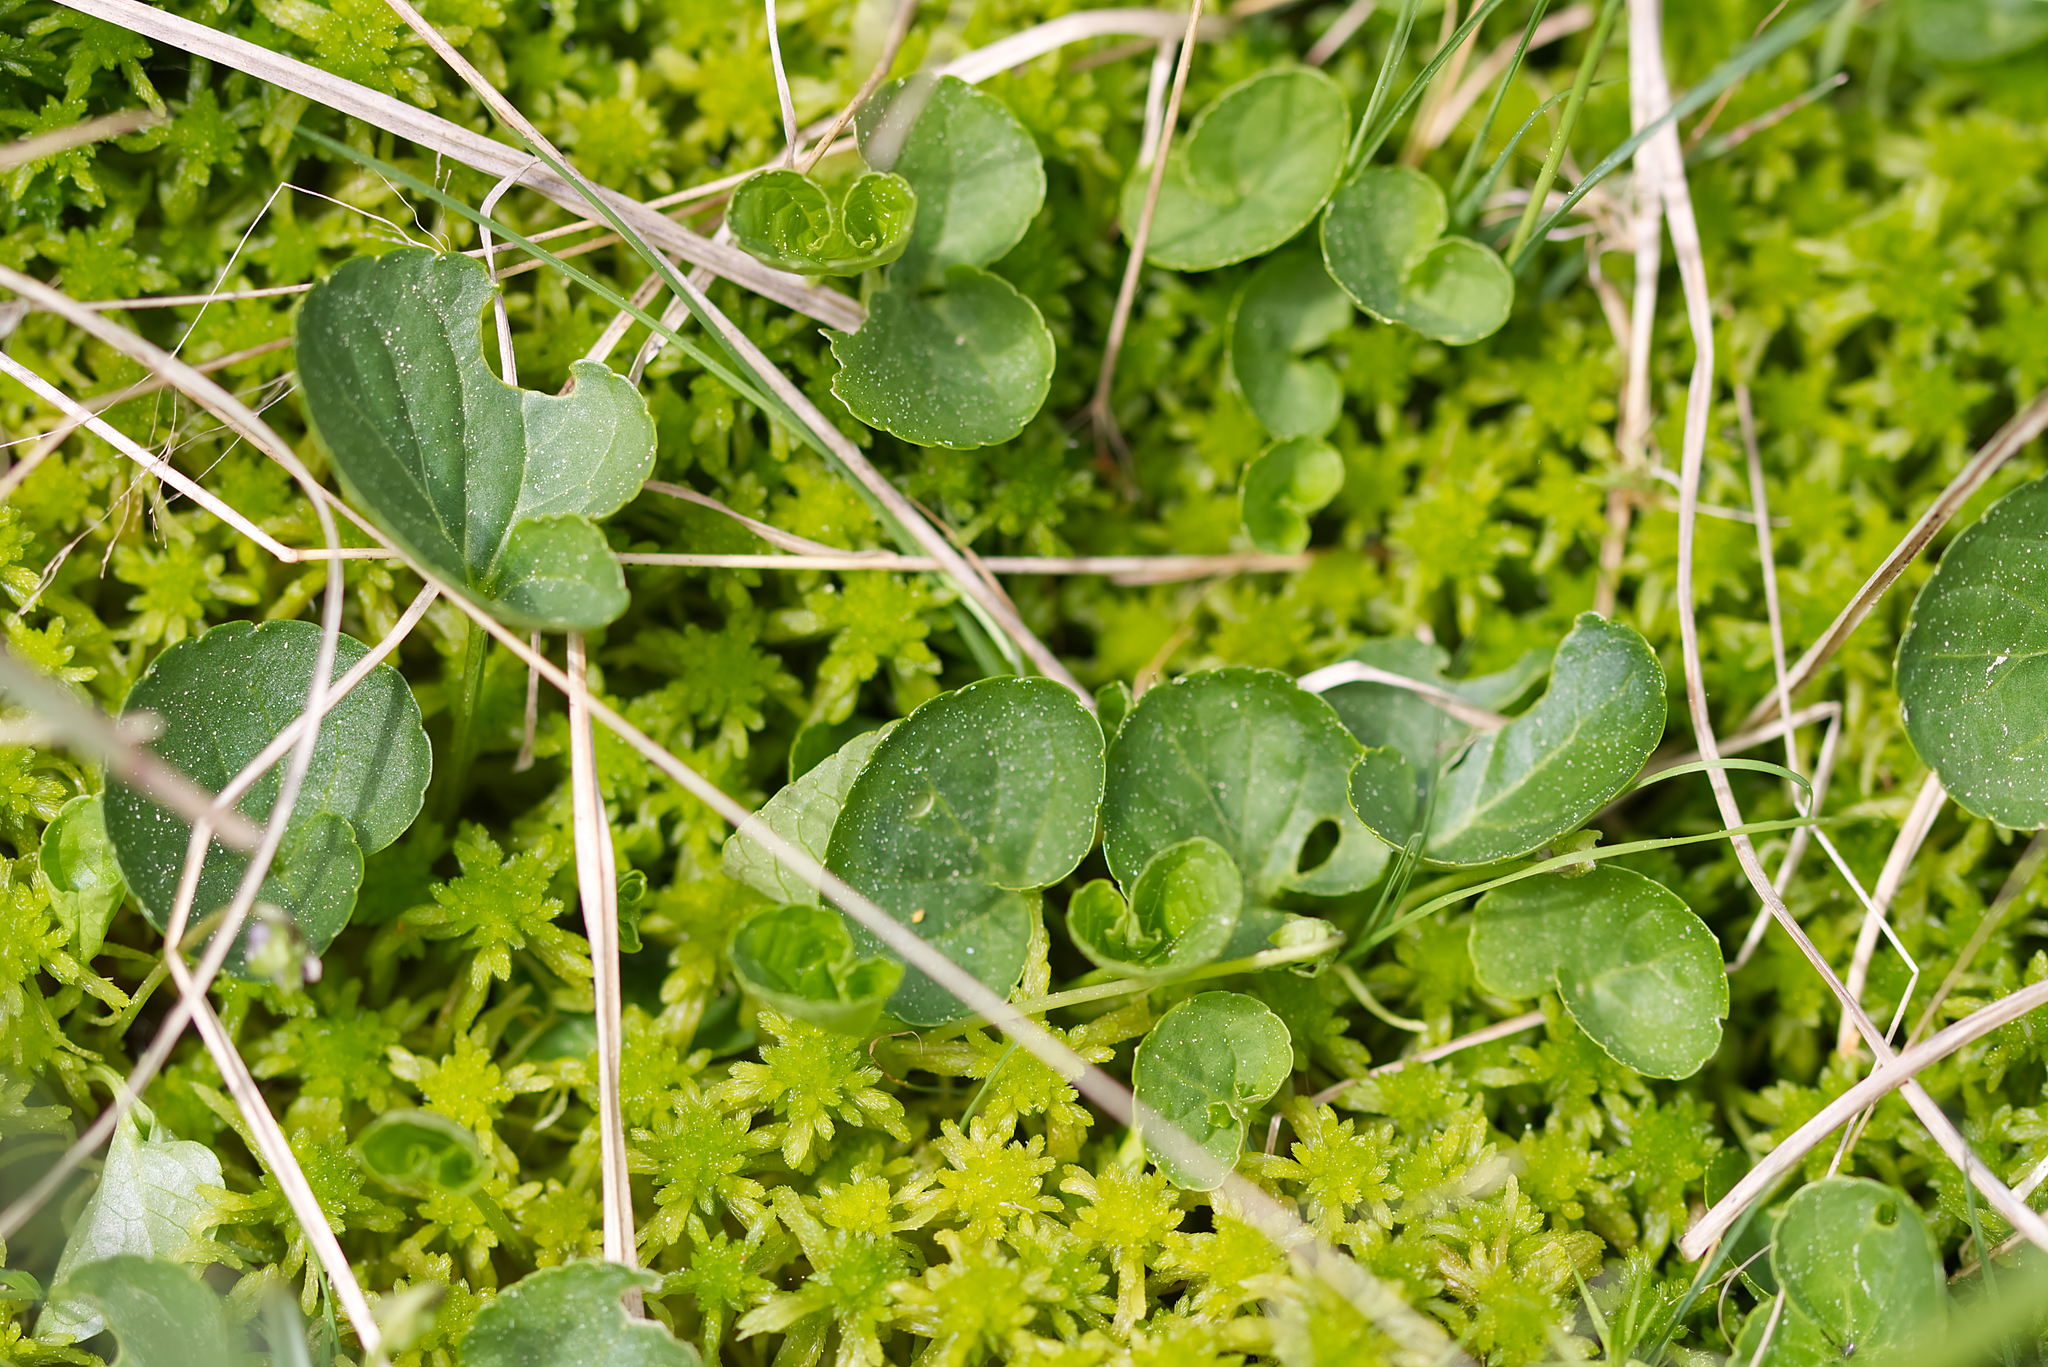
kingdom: Plantae
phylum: Tracheophyta
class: Magnoliopsida
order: Malpighiales
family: Violaceae
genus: Viola
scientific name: Viola palustris
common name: Marsh violet
